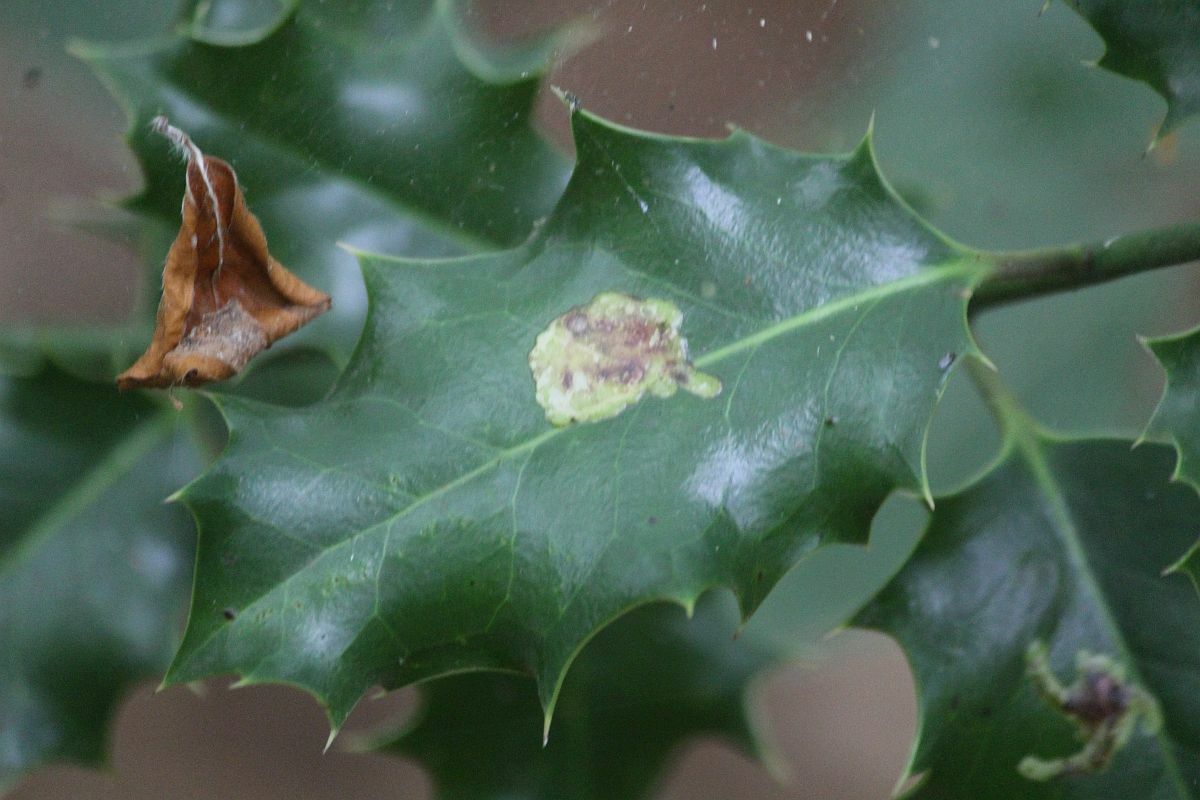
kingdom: Animalia
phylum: Arthropoda
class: Insecta
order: Diptera
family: Agromyzidae
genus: Phytomyza
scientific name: Phytomyza ilicis
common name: Holly leafminer
